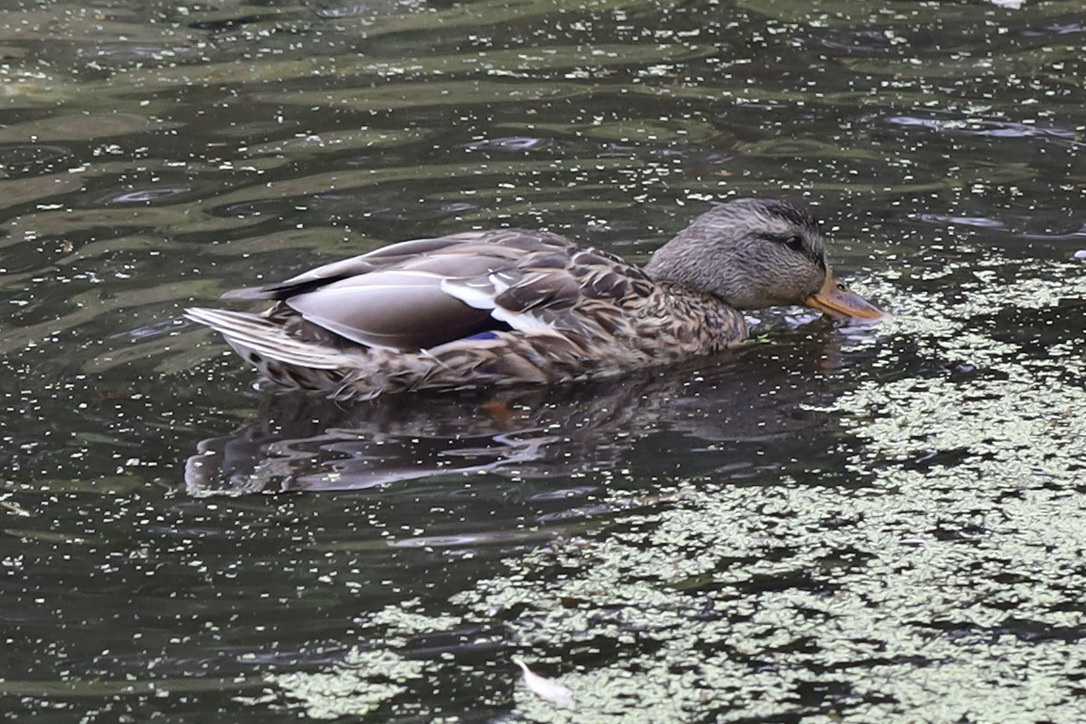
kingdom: Animalia
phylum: Chordata
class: Aves
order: Anseriformes
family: Anatidae
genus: Anas
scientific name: Anas platyrhynchos
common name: Mallard
